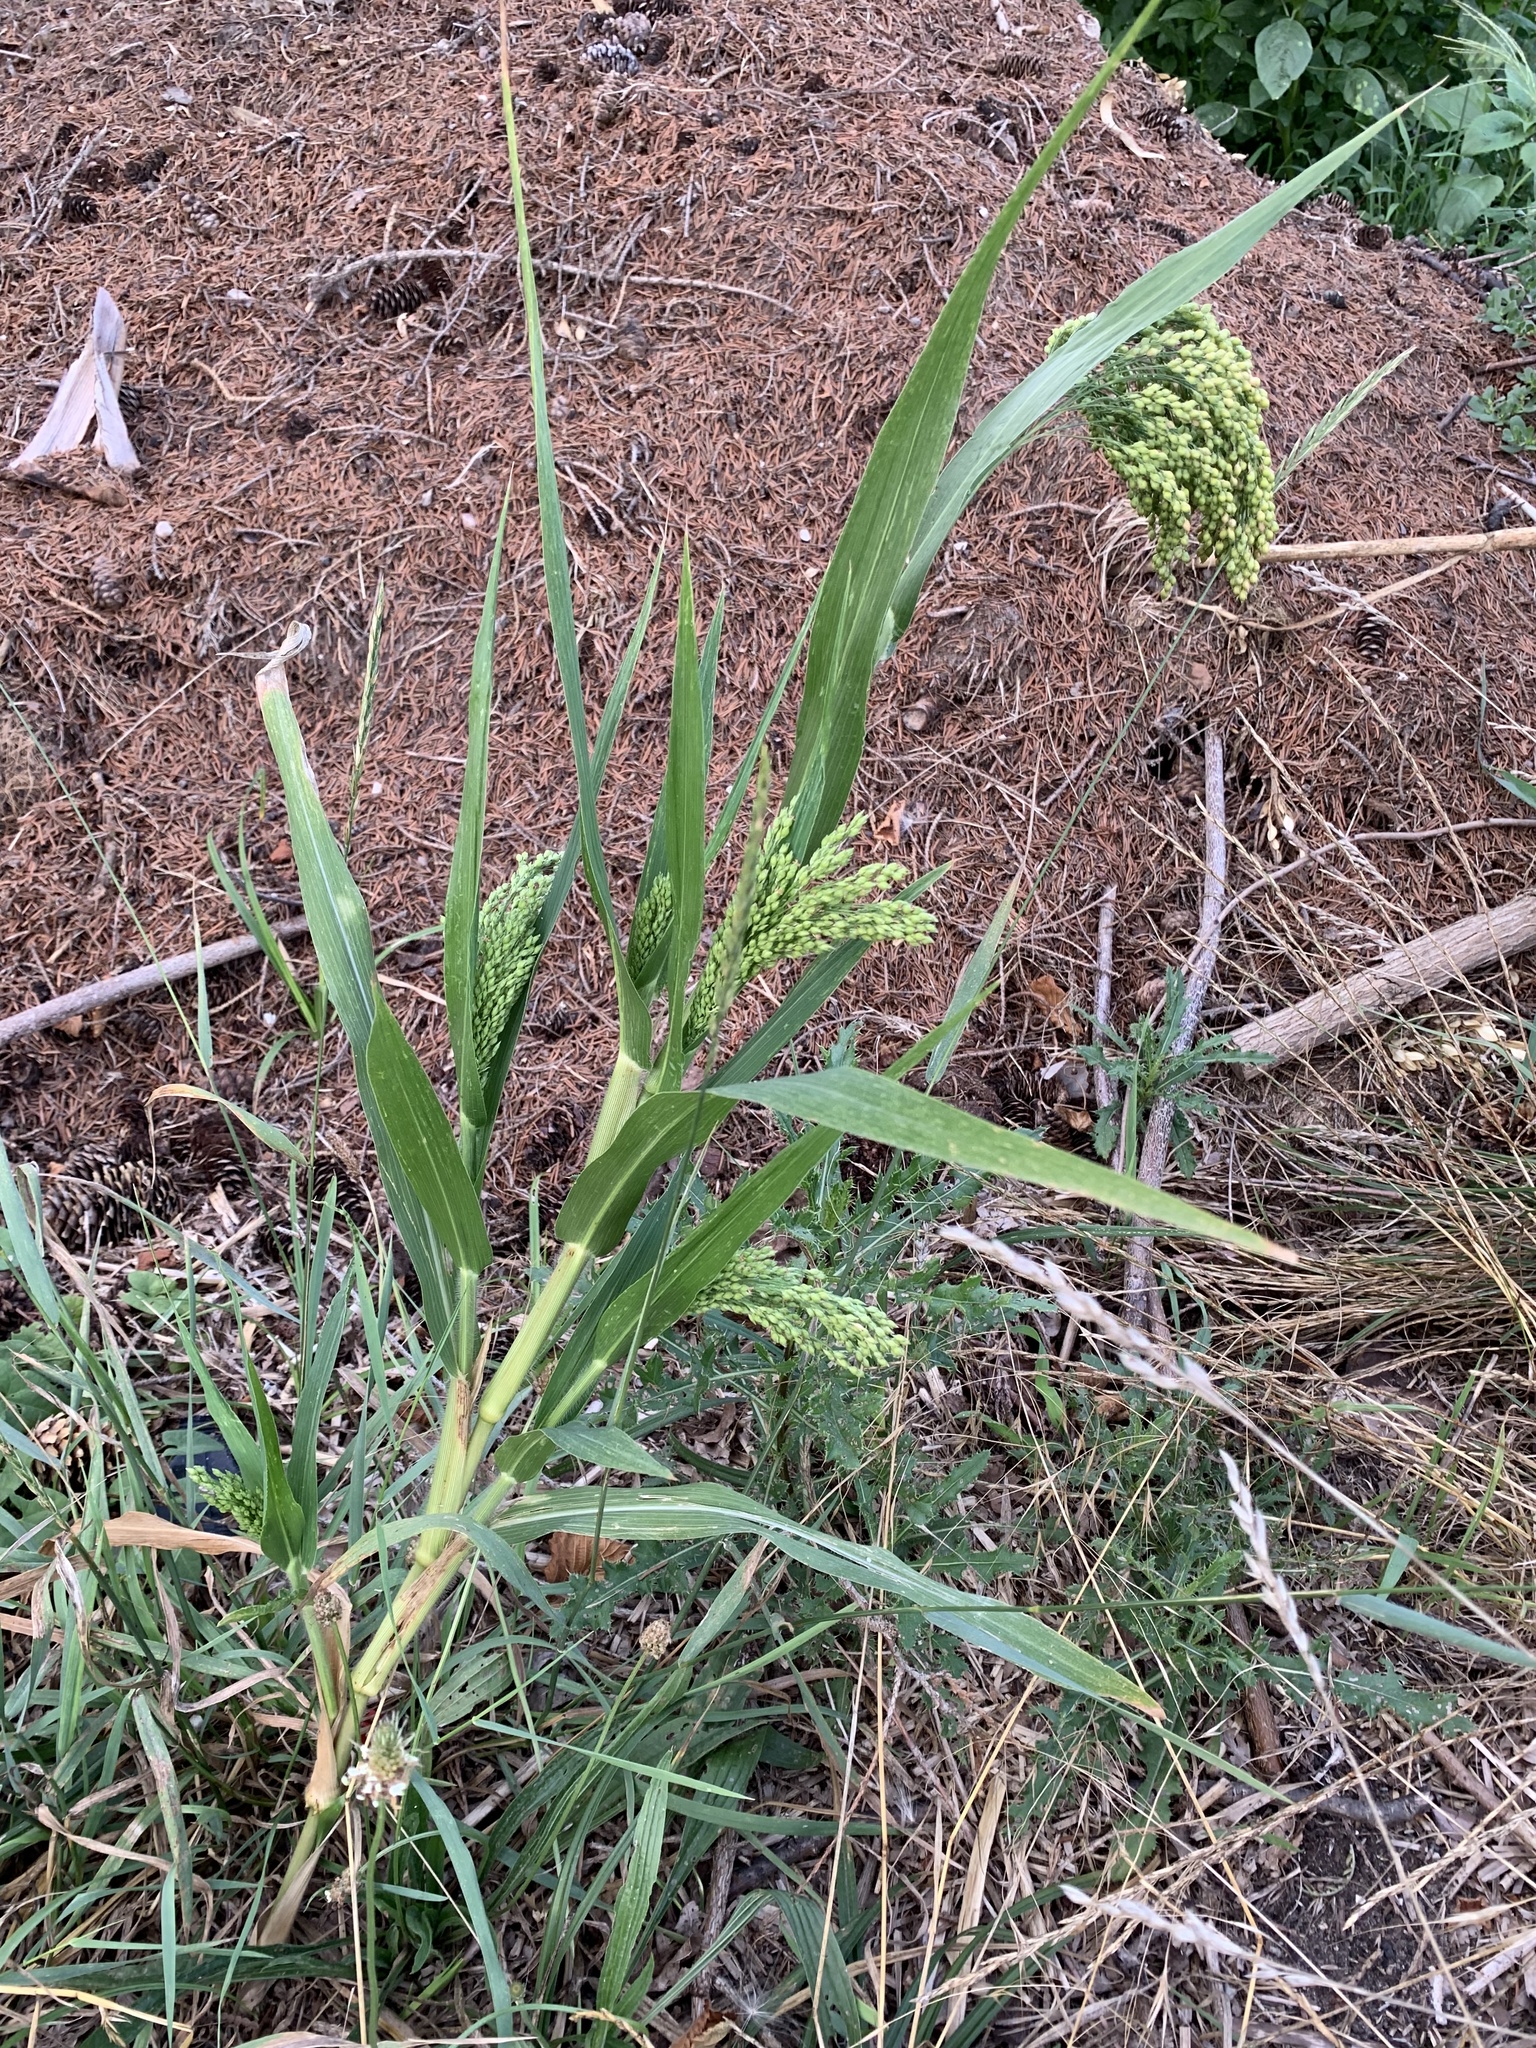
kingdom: Plantae
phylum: Tracheophyta
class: Liliopsida
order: Poales
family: Poaceae
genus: Panicum
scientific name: Panicum miliaceum
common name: Common millet
